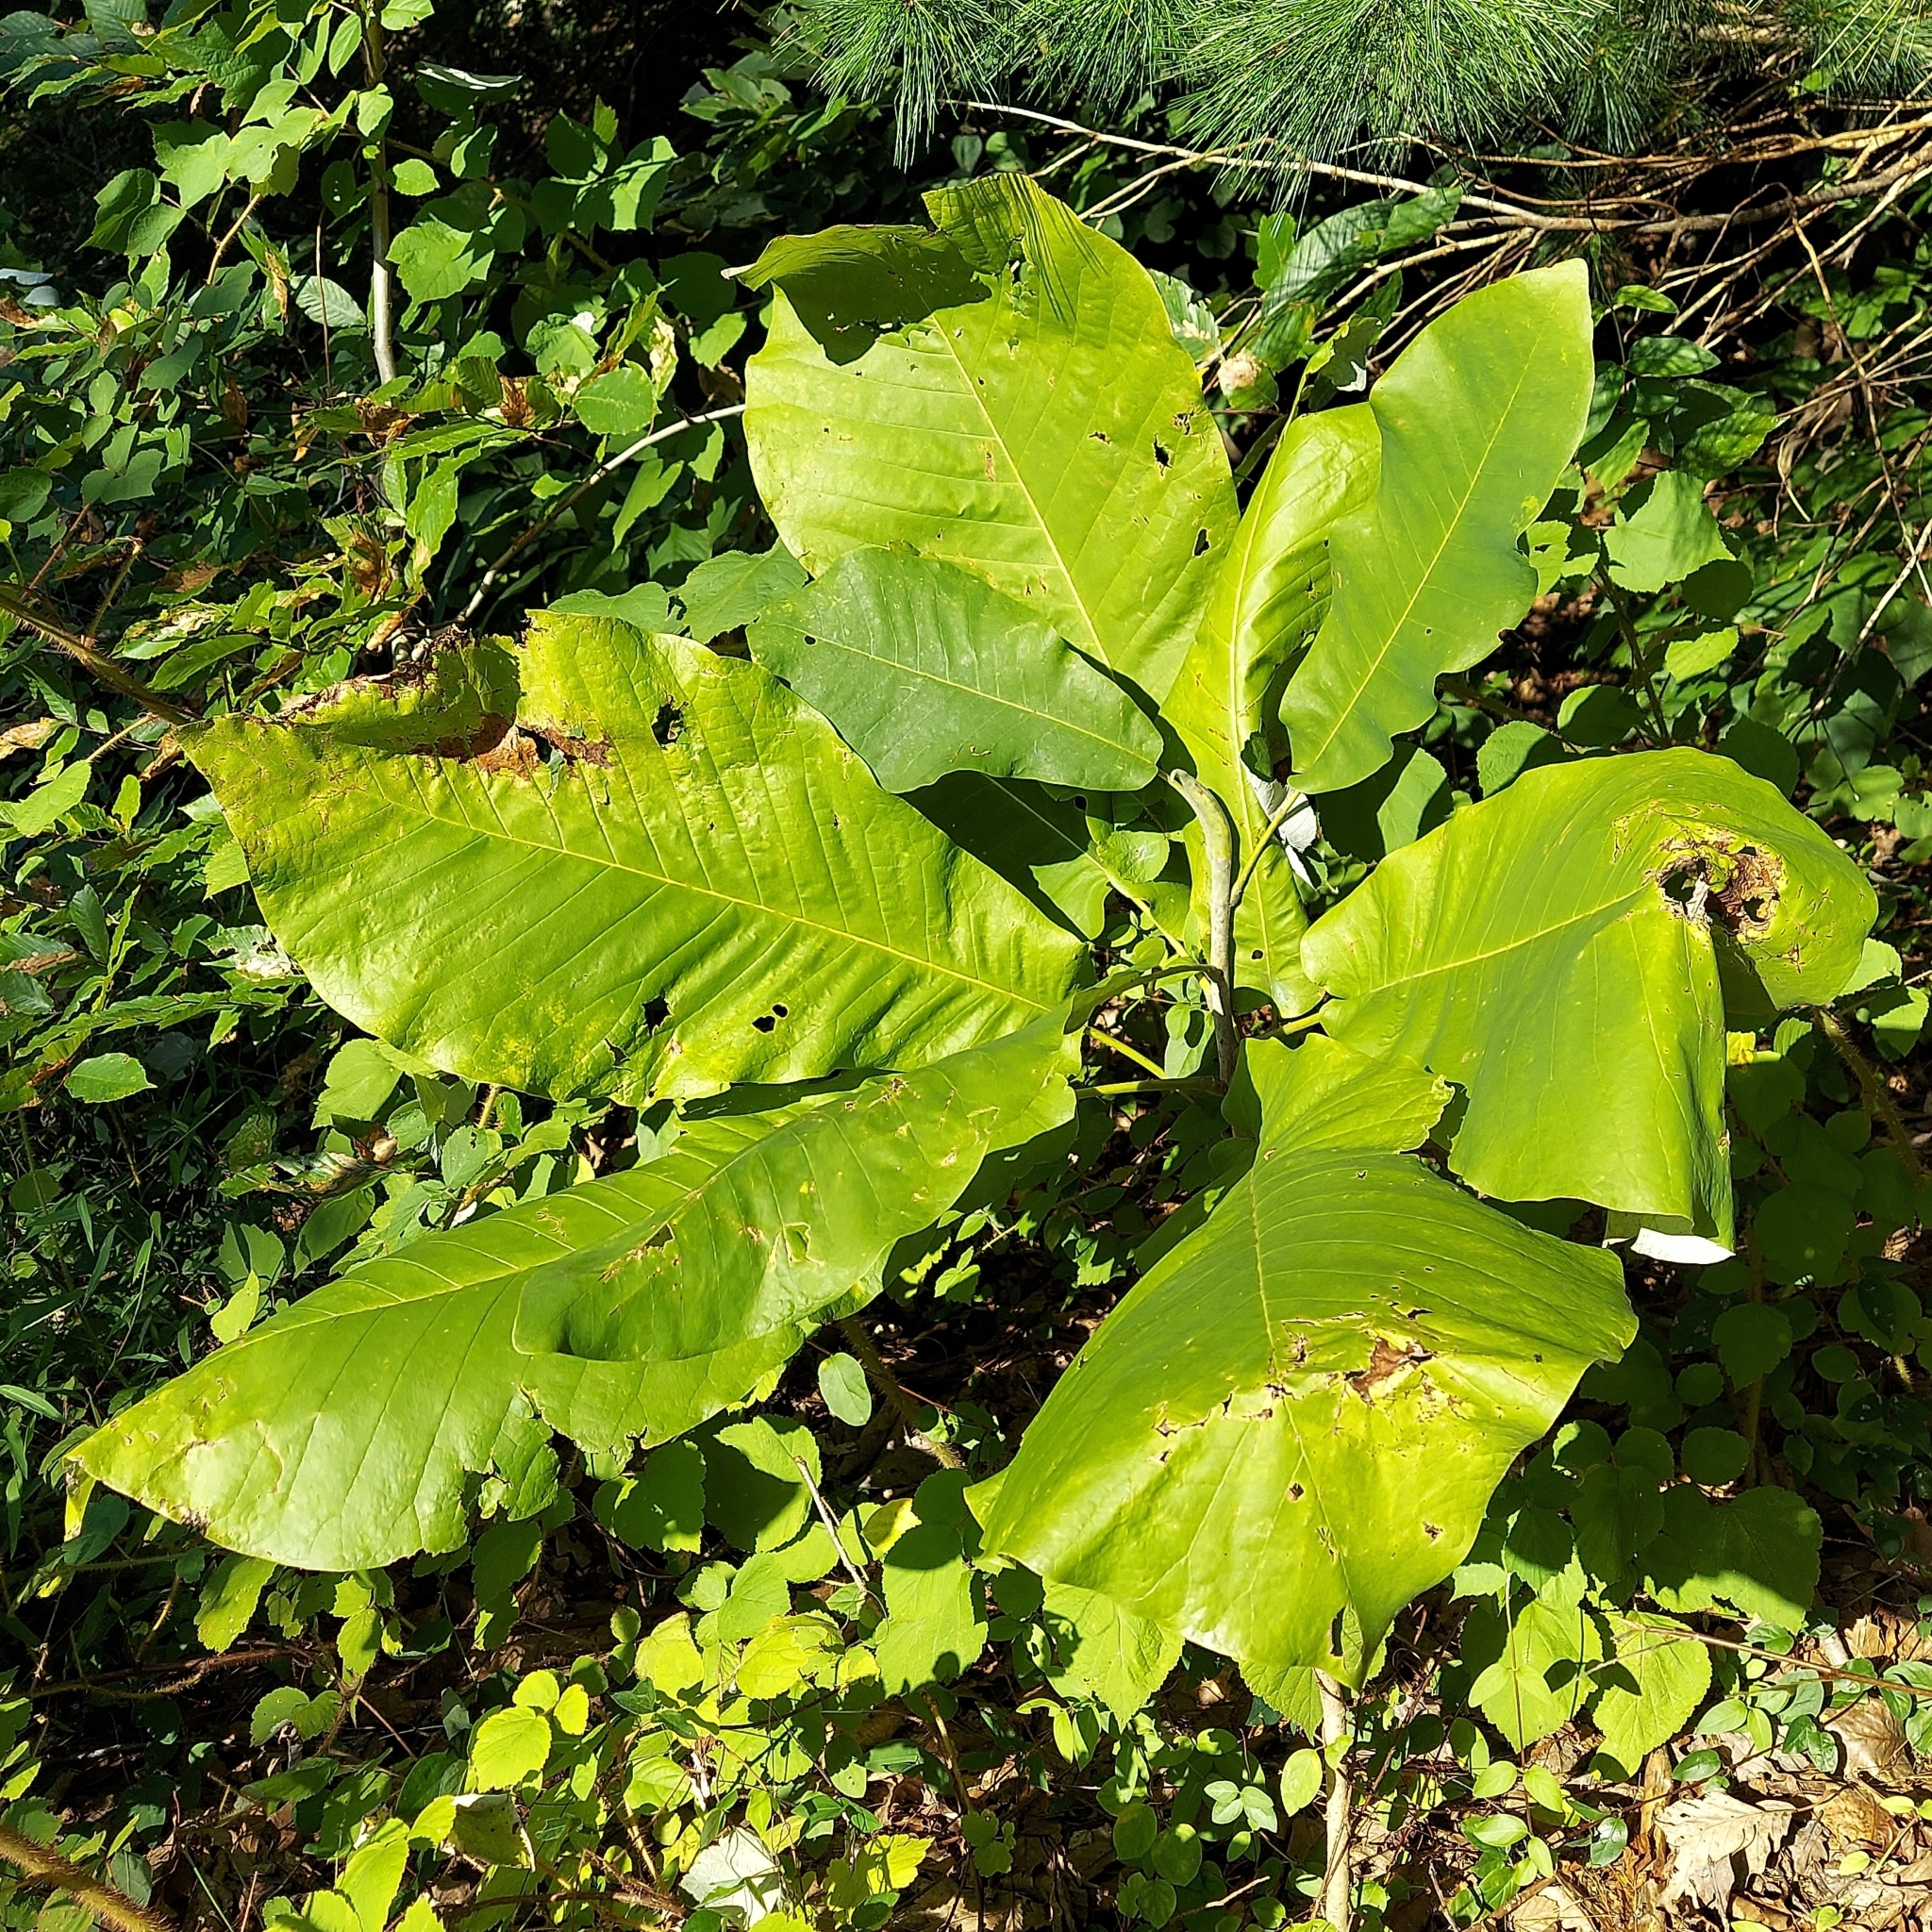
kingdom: Plantae
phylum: Tracheophyta
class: Magnoliopsida
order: Magnoliales
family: Magnoliaceae
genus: Magnolia
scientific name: Magnolia macrophylla
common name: Big-leaf magnolia
